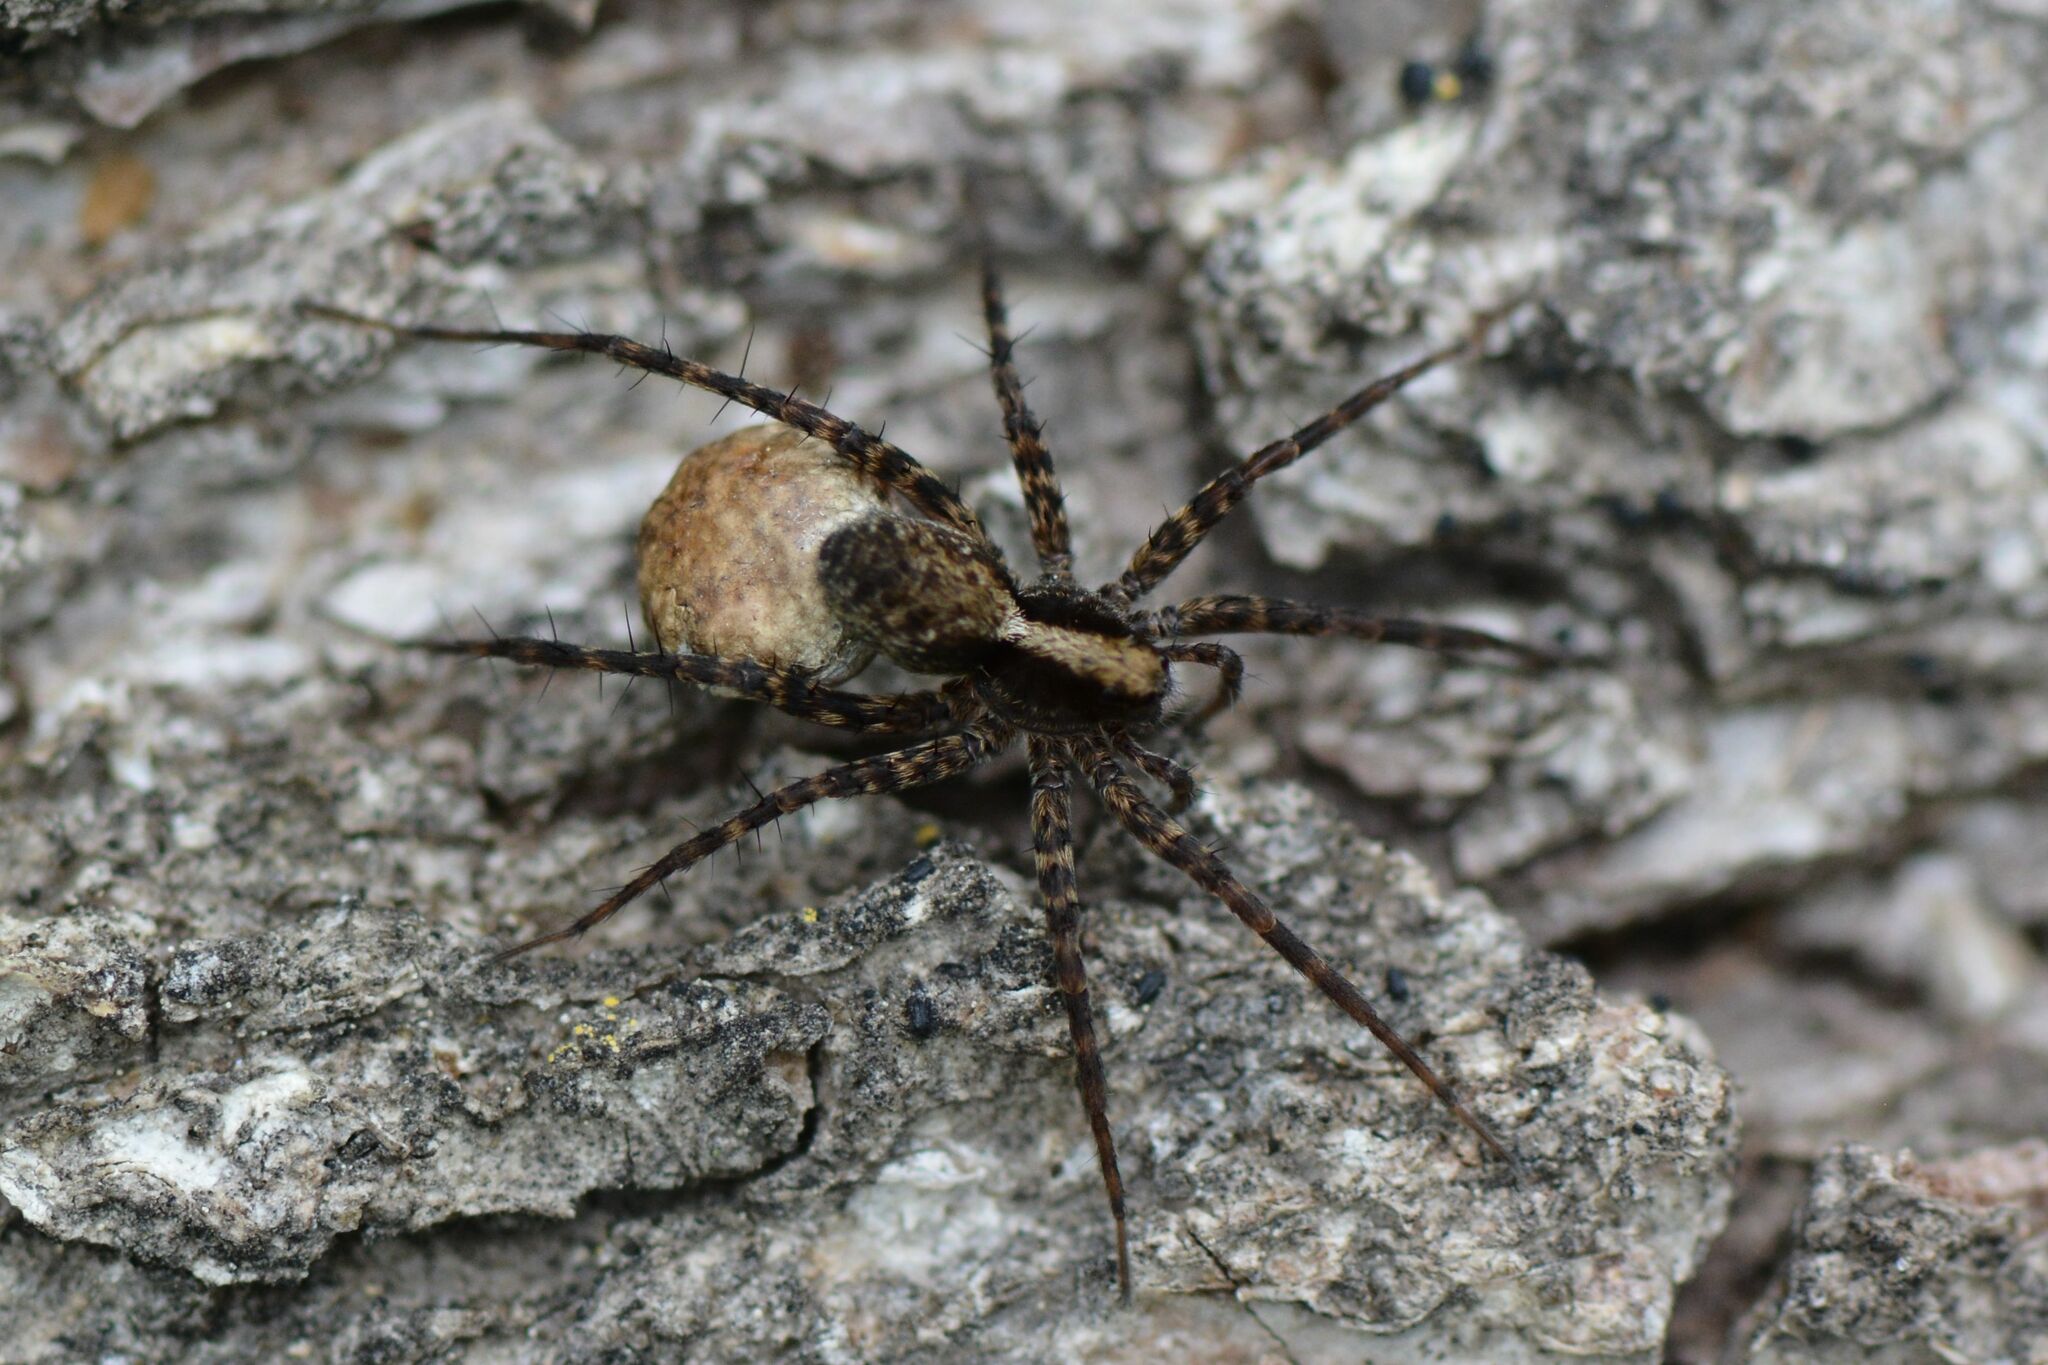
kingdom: Animalia
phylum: Arthropoda
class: Arachnida
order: Araneae
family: Lycosidae
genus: Pardosa
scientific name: Pardosa
